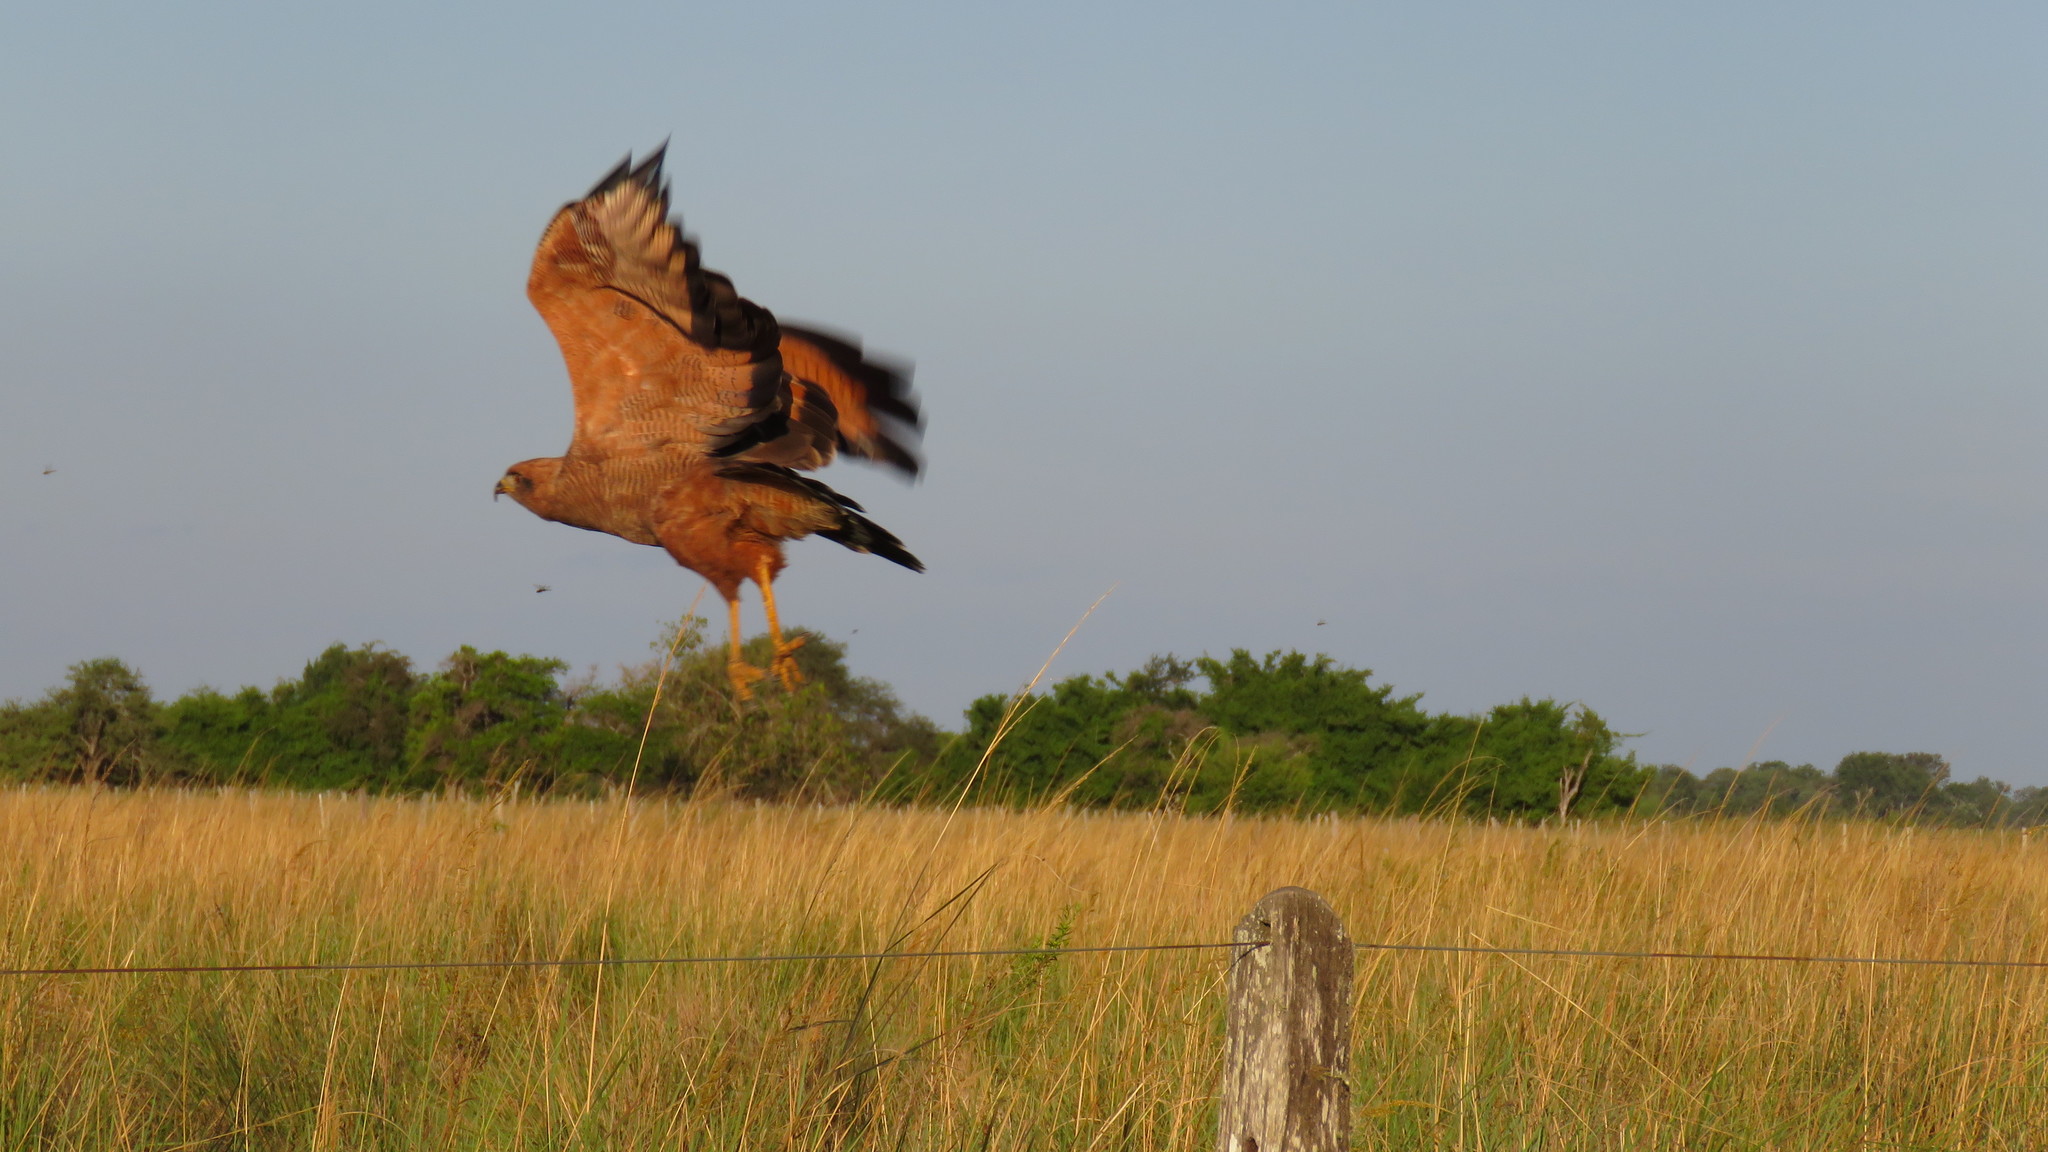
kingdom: Animalia
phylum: Chordata
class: Aves
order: Accipitriformes
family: Accipitridae
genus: Buteogallus
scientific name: Buteogallus meridionalis
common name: Savanna hawk
